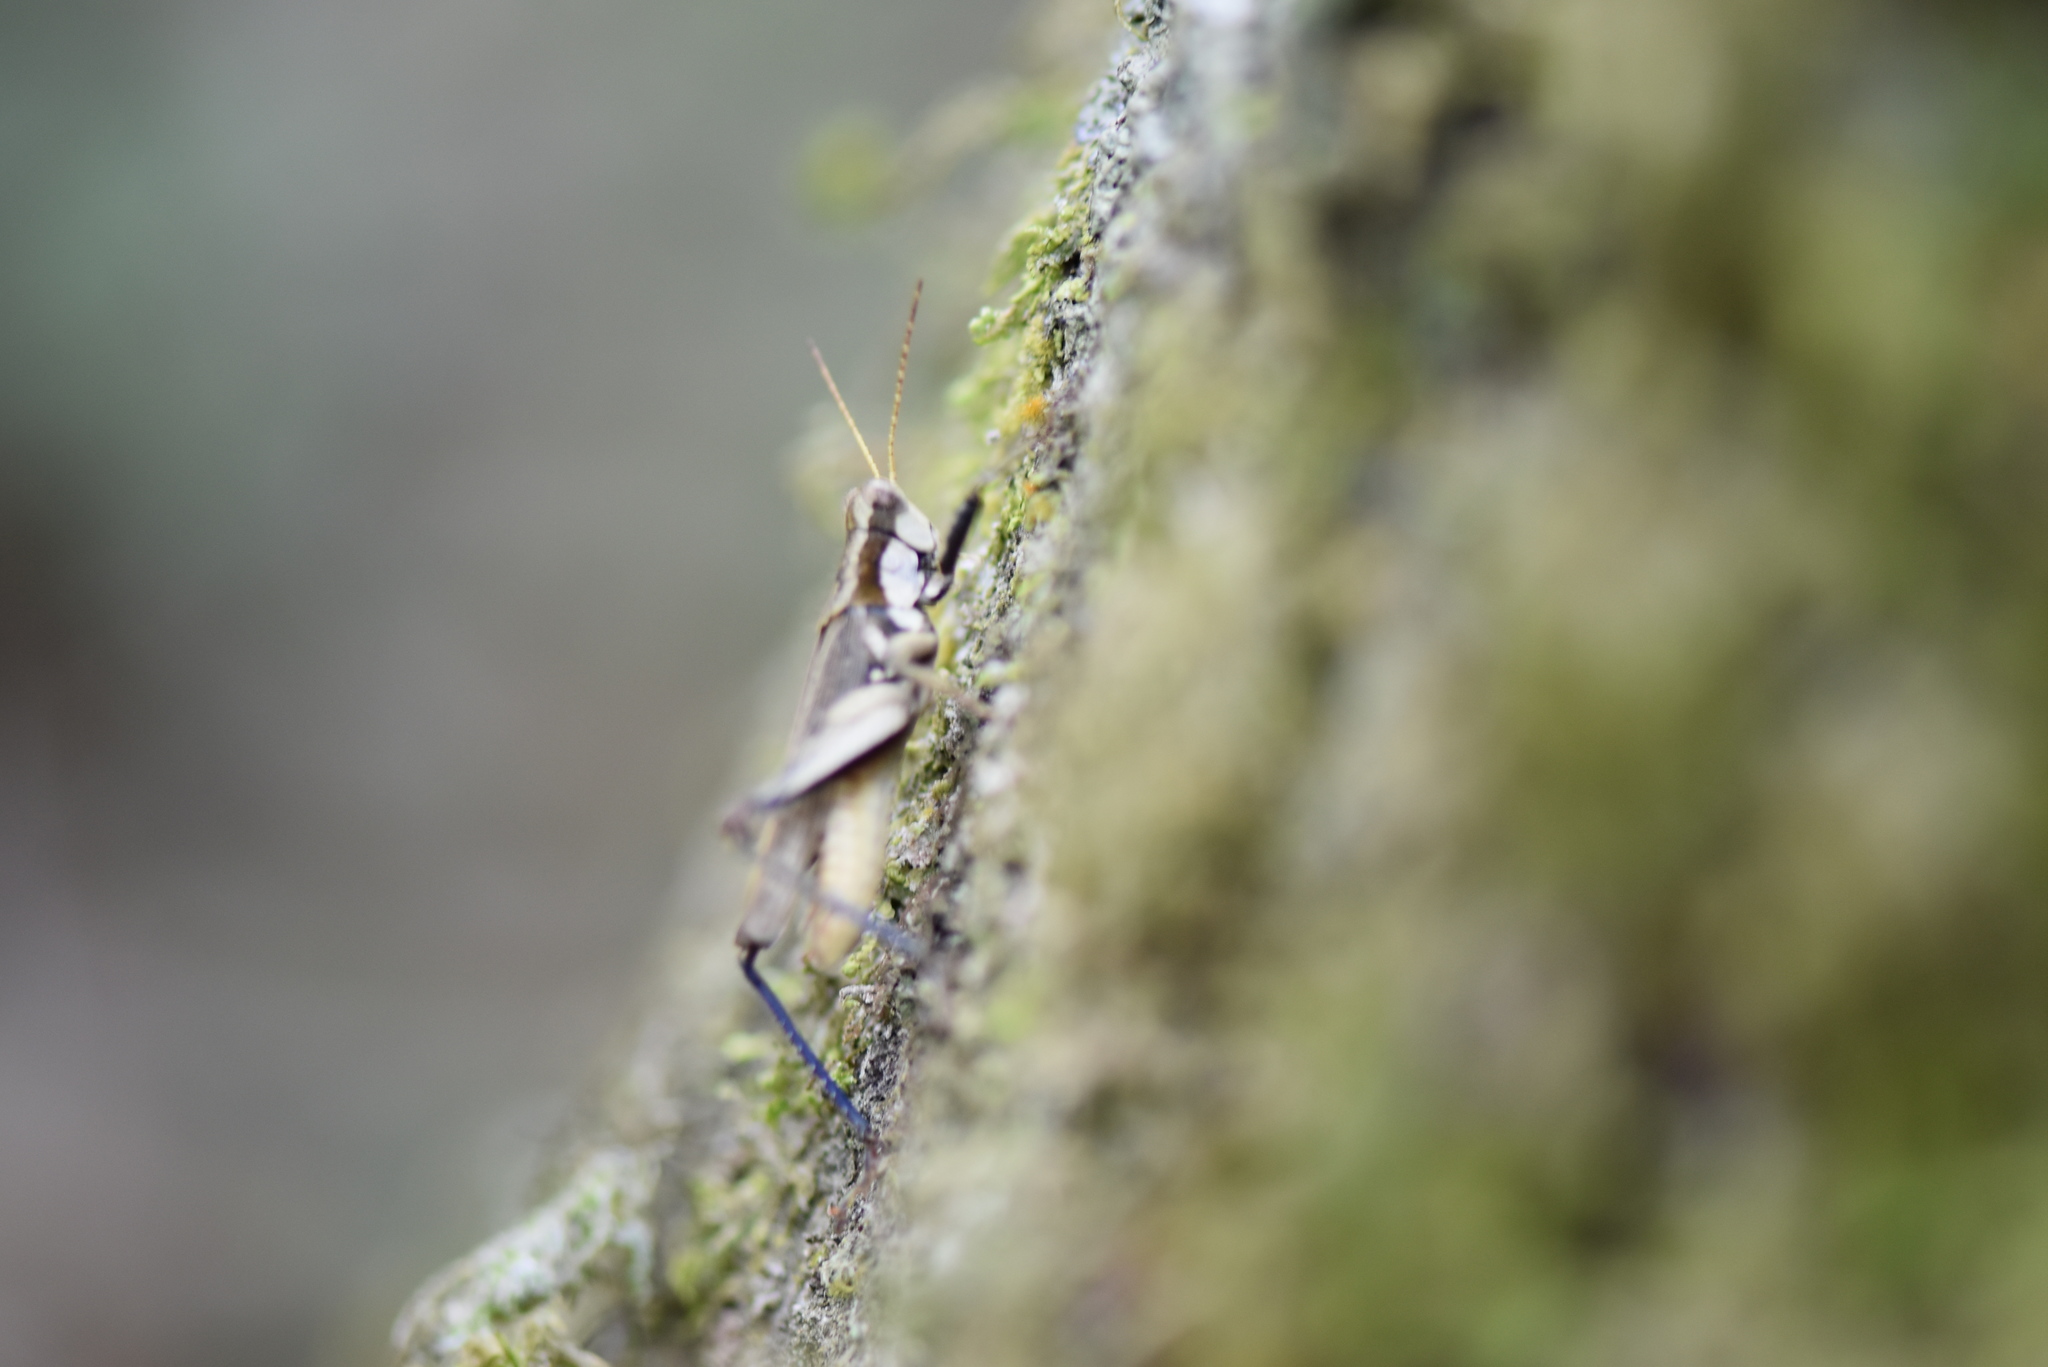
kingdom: Animalia
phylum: Arthropoda
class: Insecta
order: Orthoptera
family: Acrididae
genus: Ronderosia
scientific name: Ronderosia bergii
